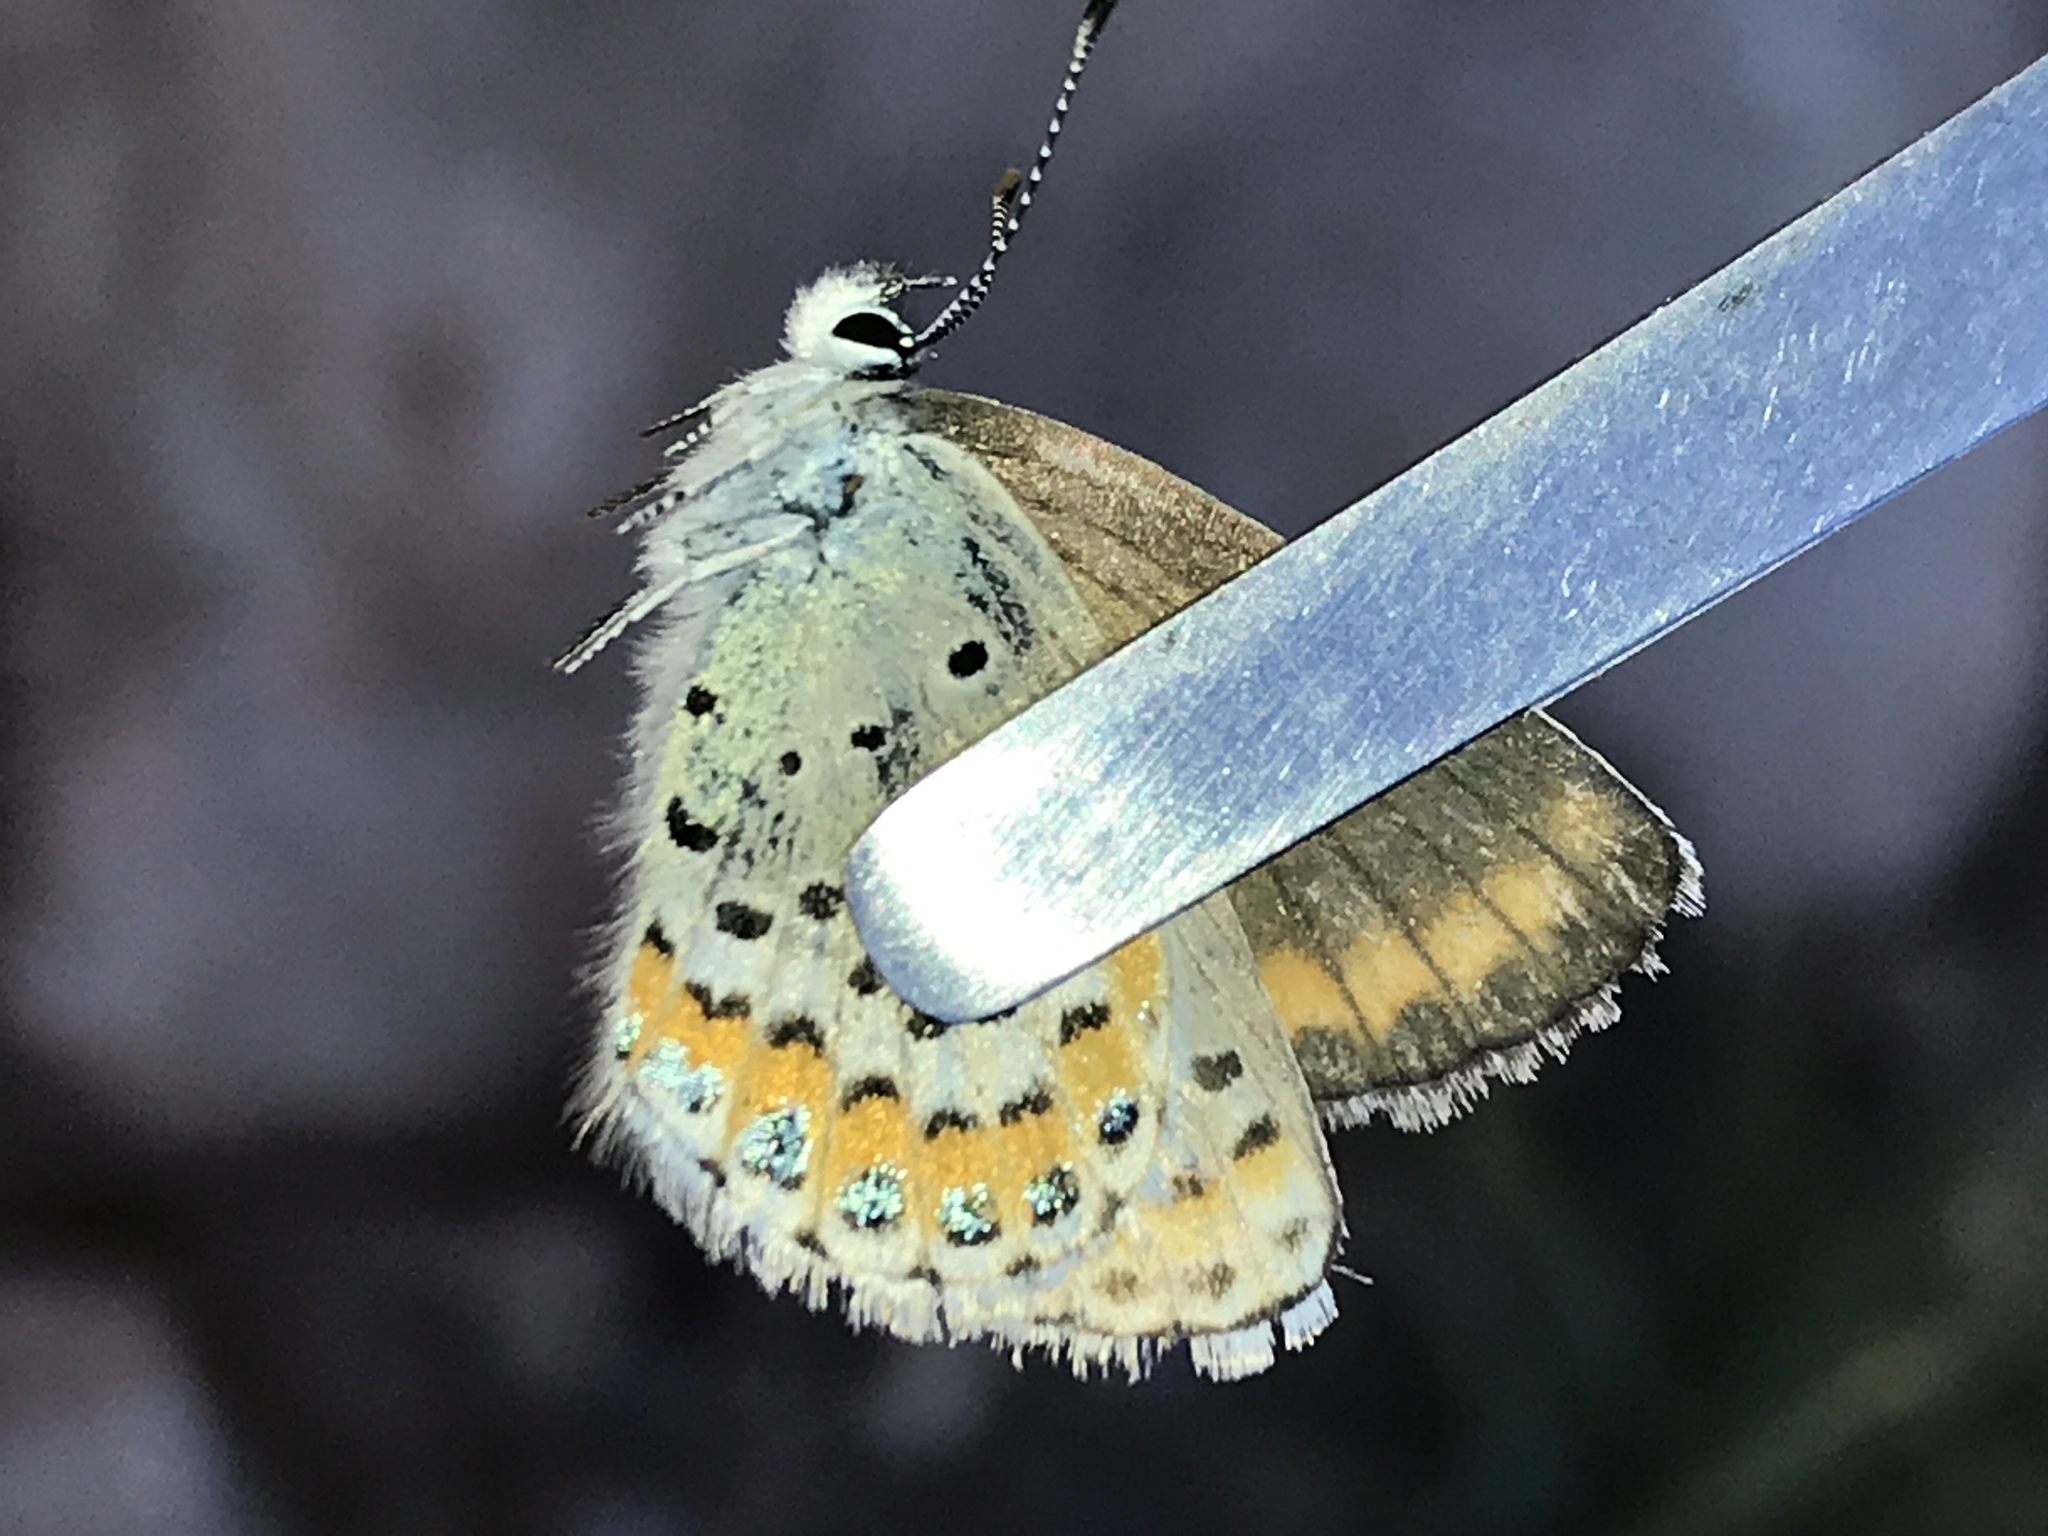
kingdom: Animalia
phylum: Arthropoda
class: Insecta
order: Lepidoptera
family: Lycaenidae
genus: Lycaeides
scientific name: Lycaeides melissa
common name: Melissa blue
